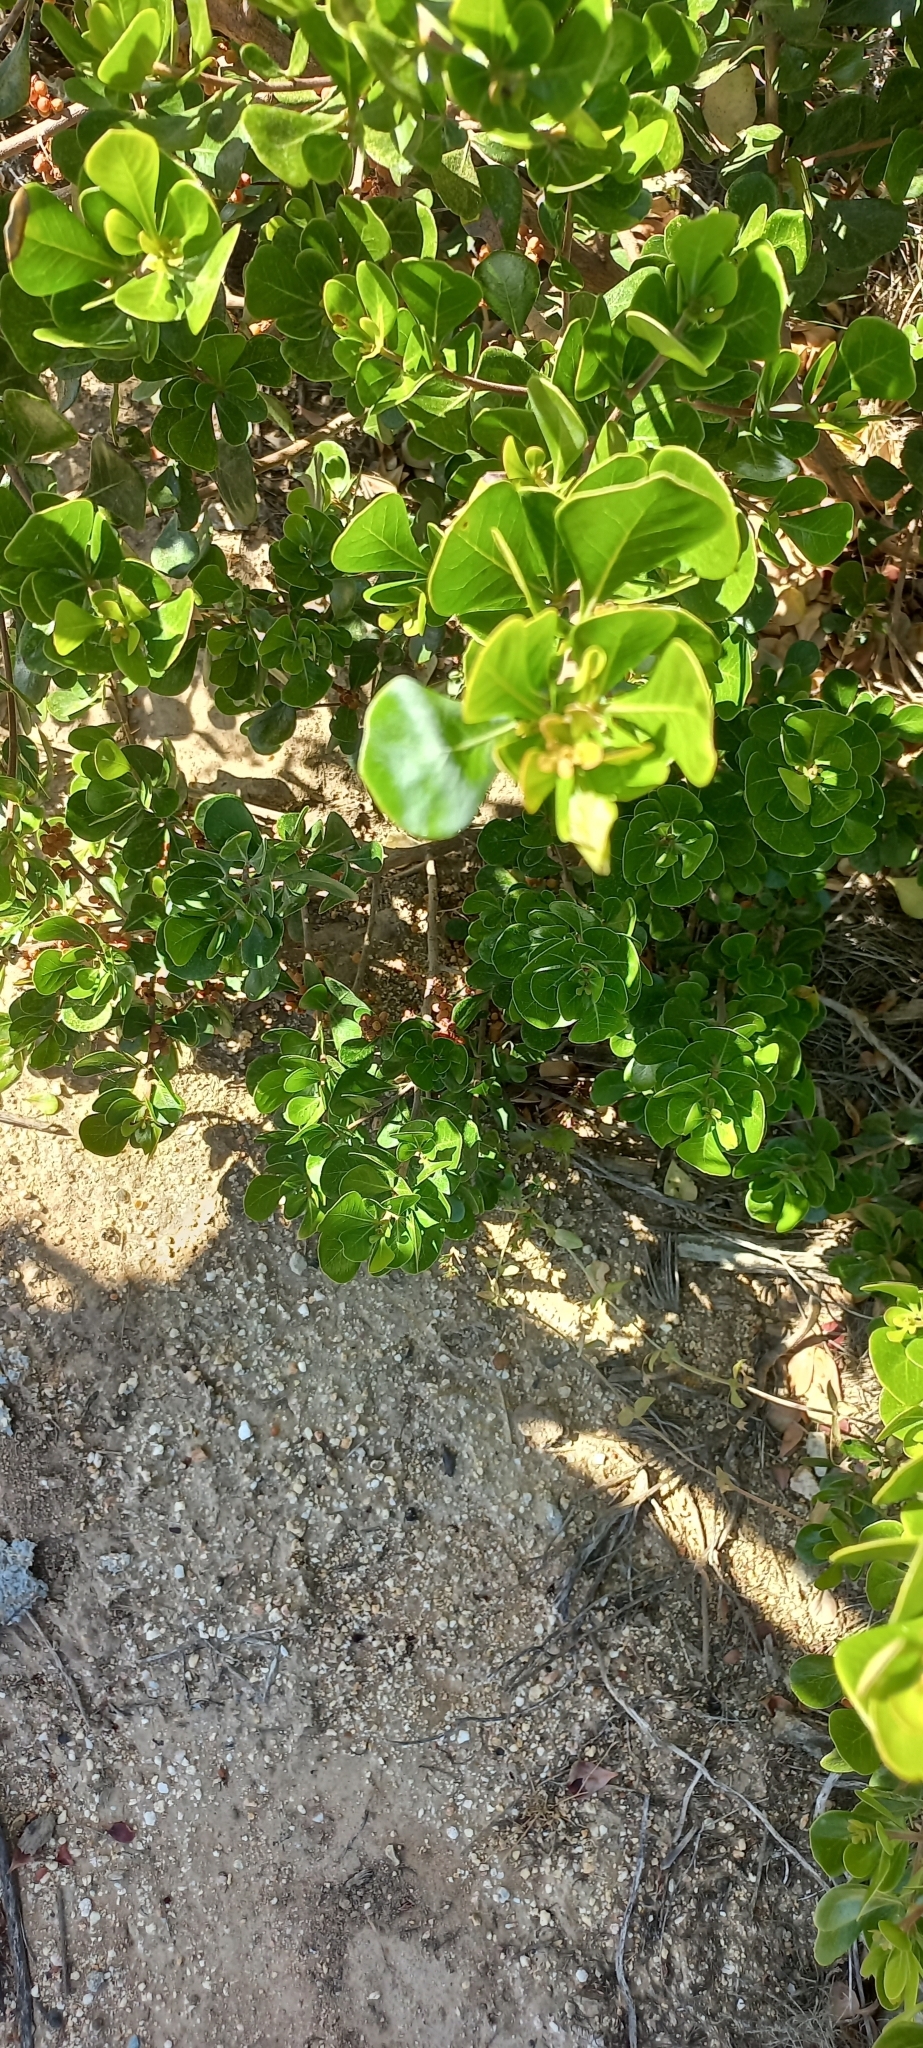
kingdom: Plantae
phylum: Tracheophyta
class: Magnoliopsida
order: Sapindales
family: Anacardiaceae
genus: Searsia
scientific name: Searsia lucida
